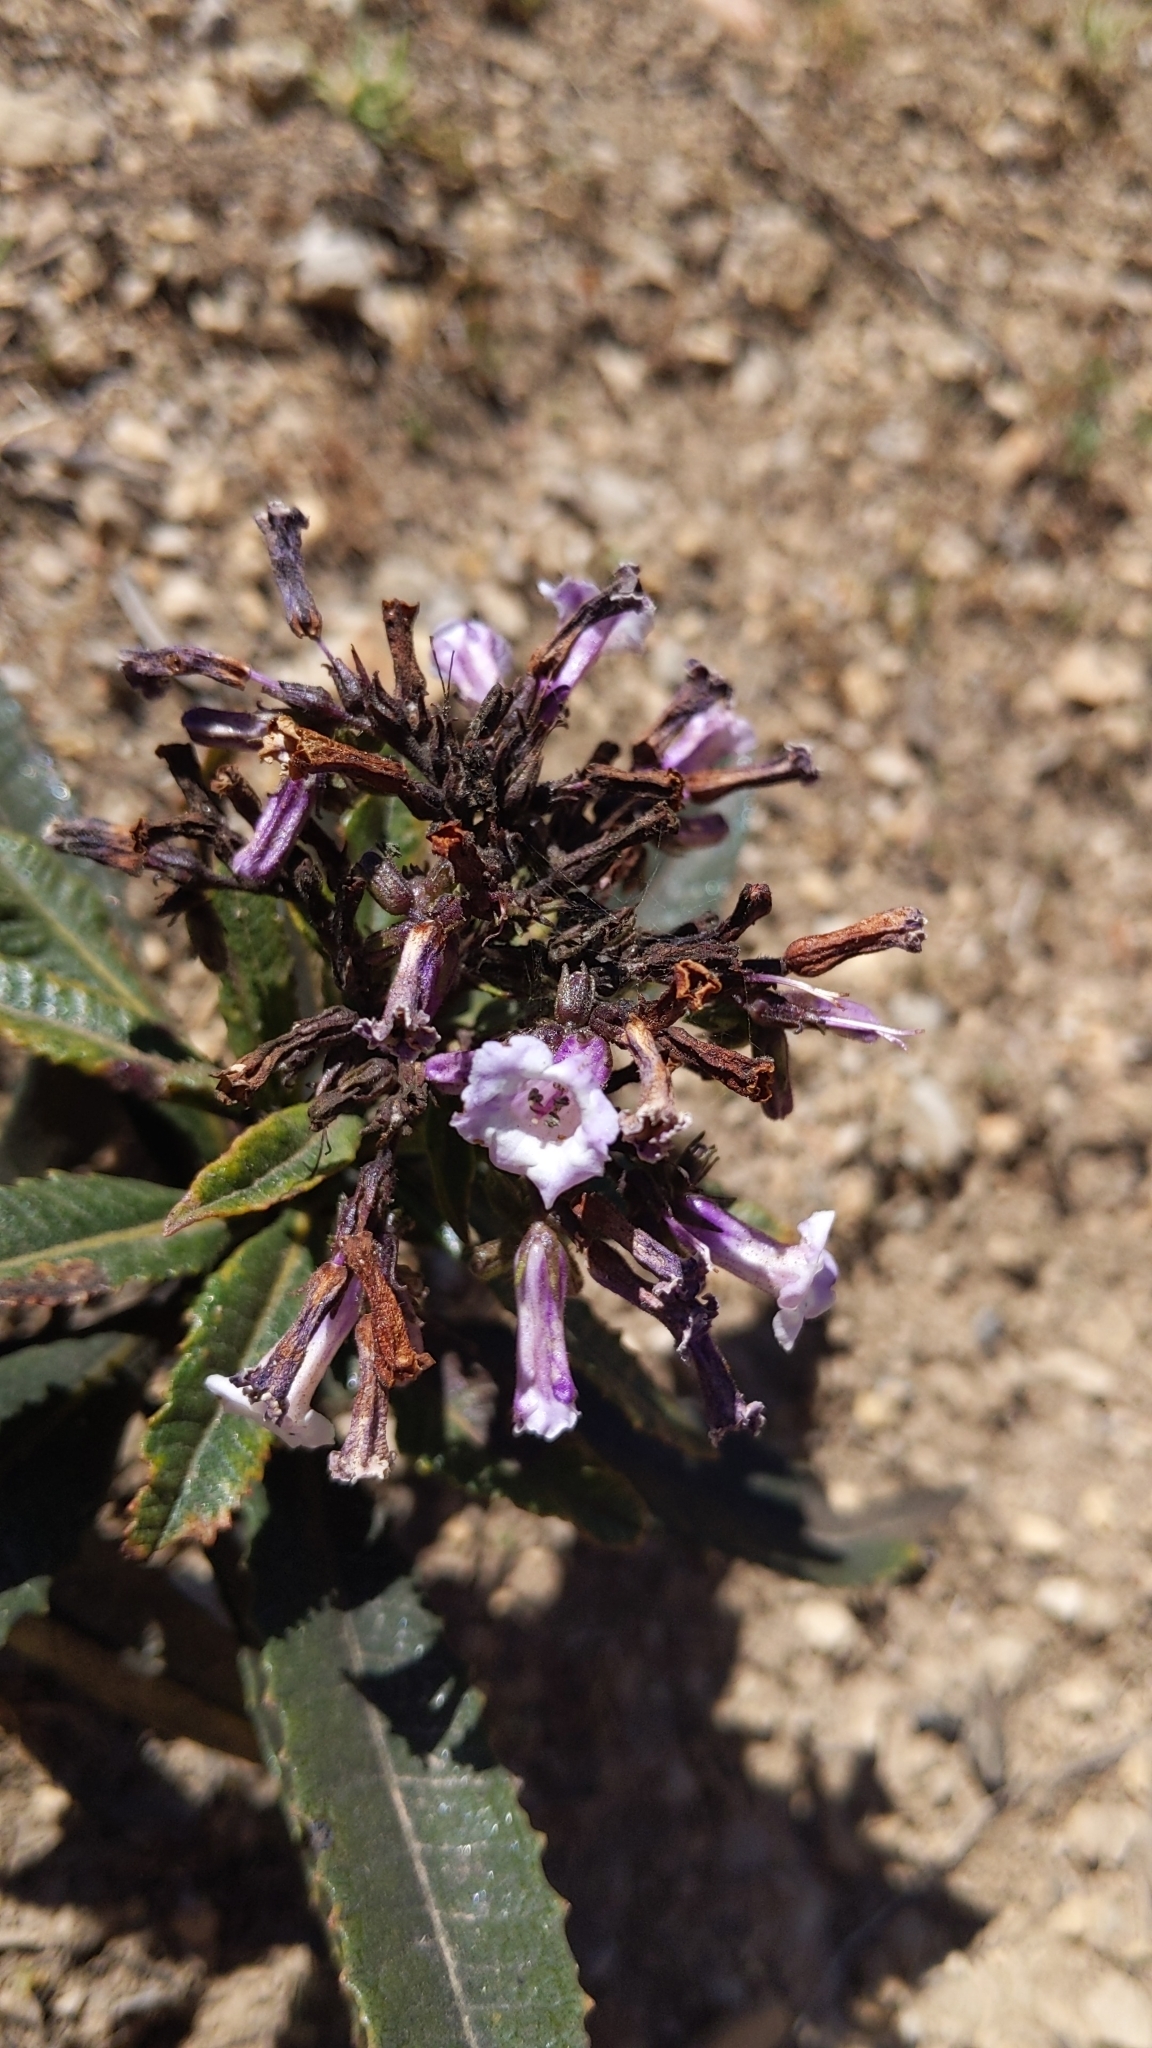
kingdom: Plantae
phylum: Tracheophyta
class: Magnoliopsida
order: Boraginales
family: Namaceae
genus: Eriodictyon
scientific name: Eriodictyon californicum
